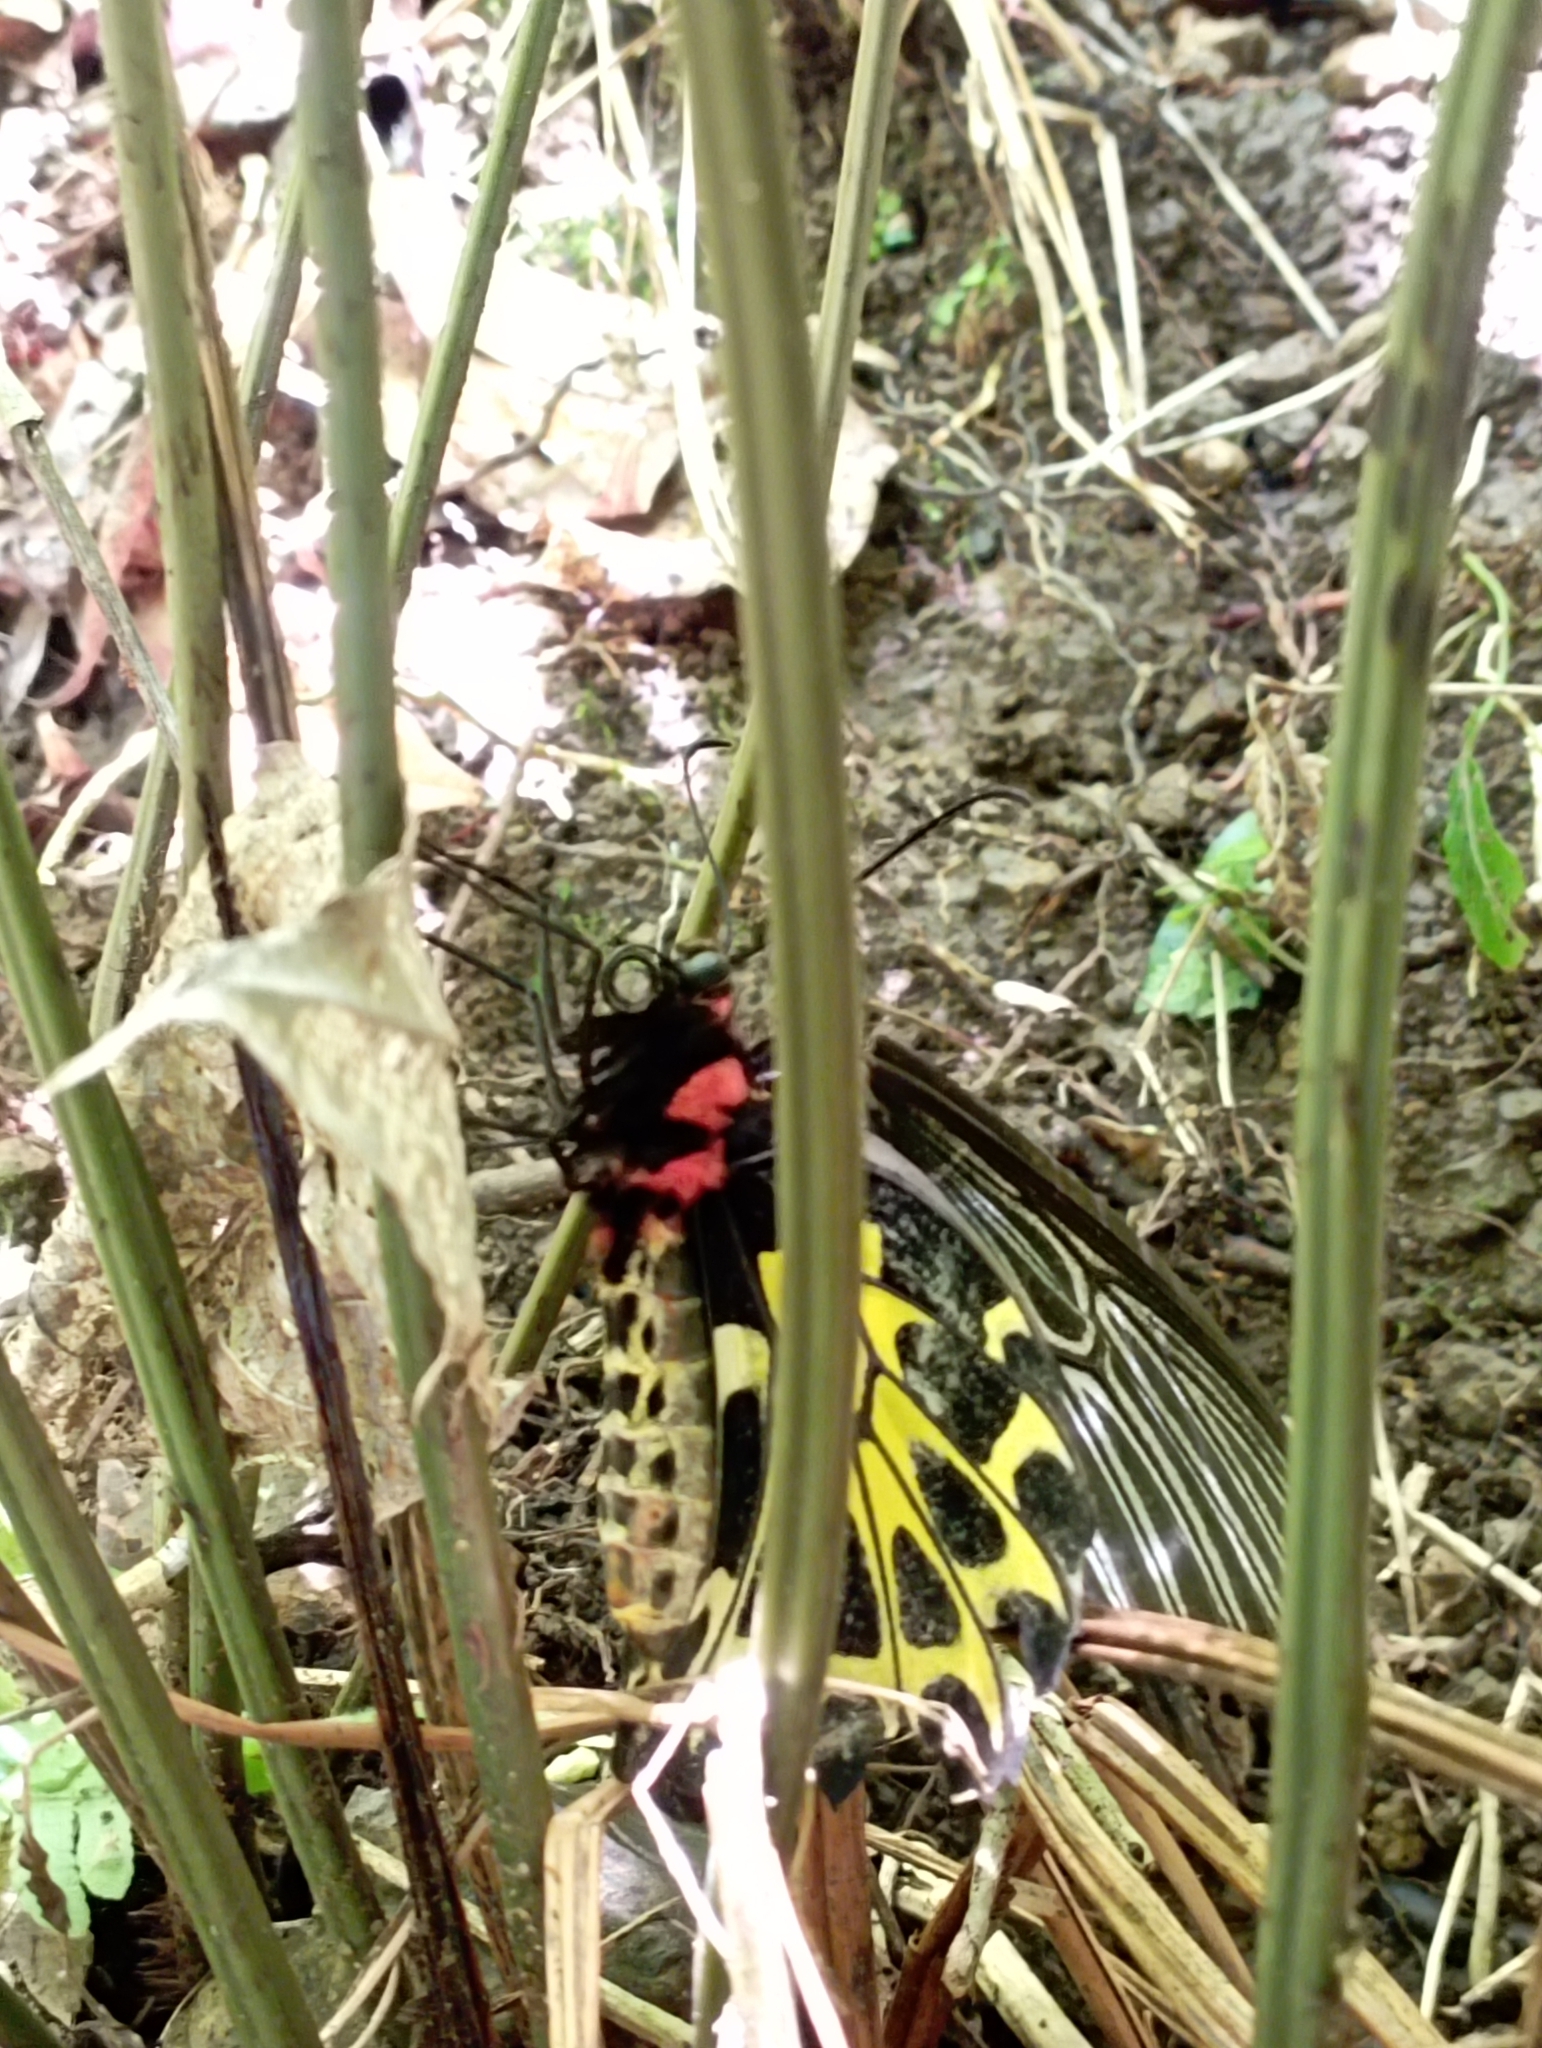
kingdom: Animalia
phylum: Arthropoda
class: Insecta
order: Lepidoptera
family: Papilionidae
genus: Troides
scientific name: Troides aeacus
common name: Golden birdwing
